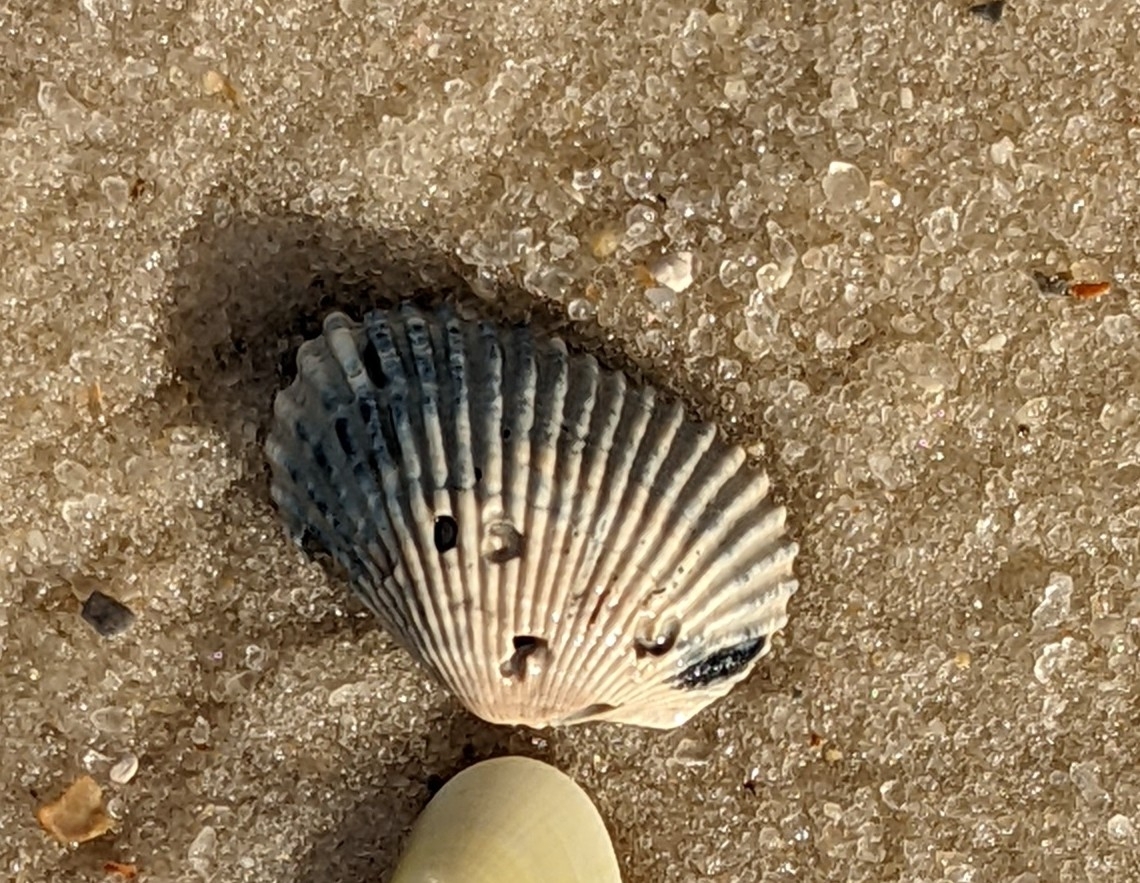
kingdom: Animalia
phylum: Mollusca
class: Bivalvia
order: Arcida
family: Arcidae
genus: Anadara
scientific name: Anadara transversa
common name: Transverse ark
